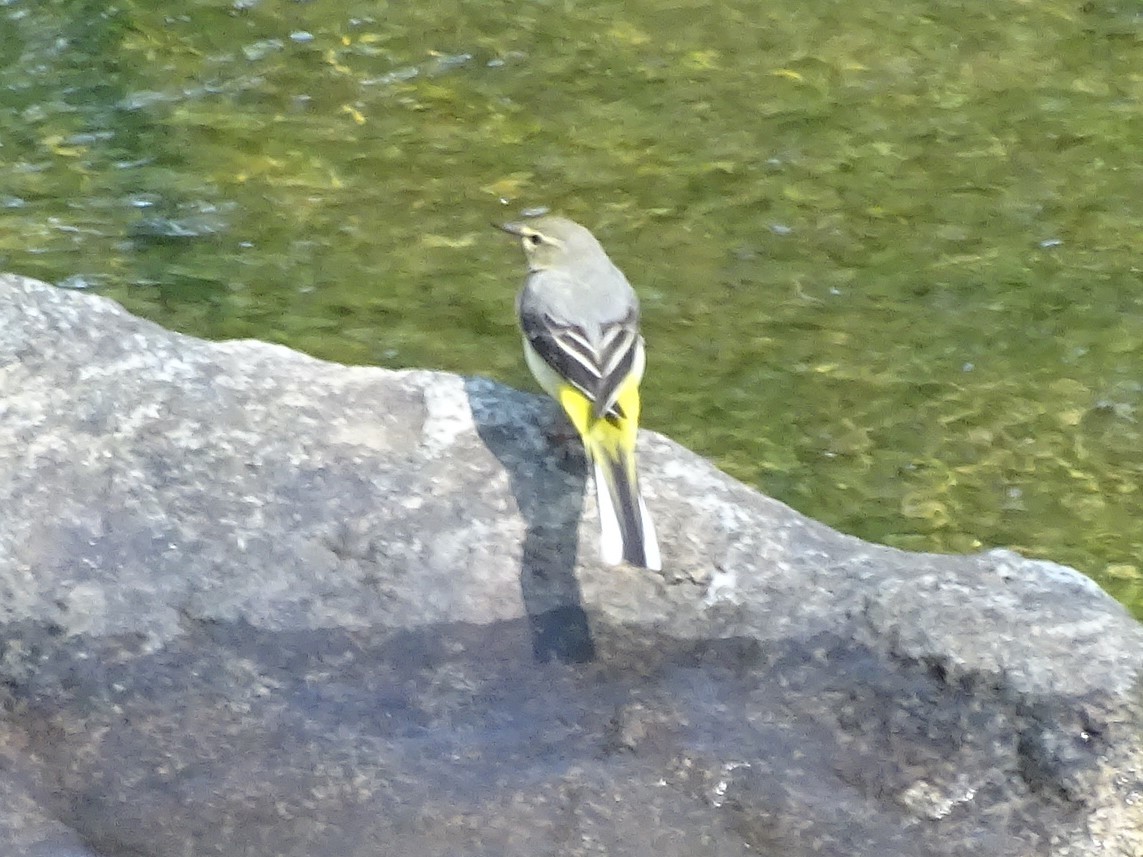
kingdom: Animalia
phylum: Chordata
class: Aves
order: Passeriformes
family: Motacillidae
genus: Motacilla
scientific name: Motacilla cinerea
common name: Grey wagtail
